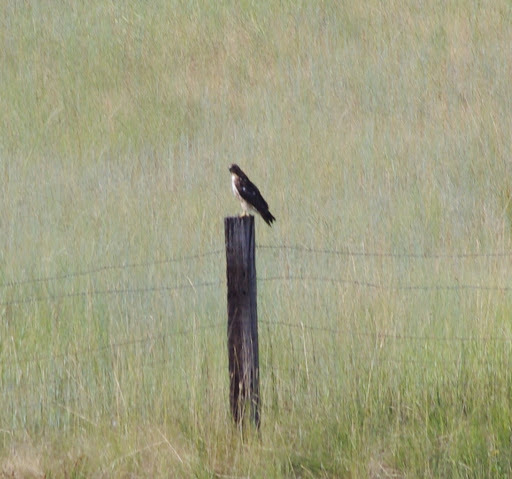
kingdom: Animalia
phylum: Chordata
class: Aves
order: Accipitriformes
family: Accipitridae
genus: Buteo
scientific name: Buteo jamaicensis
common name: Red-tailed hawk
